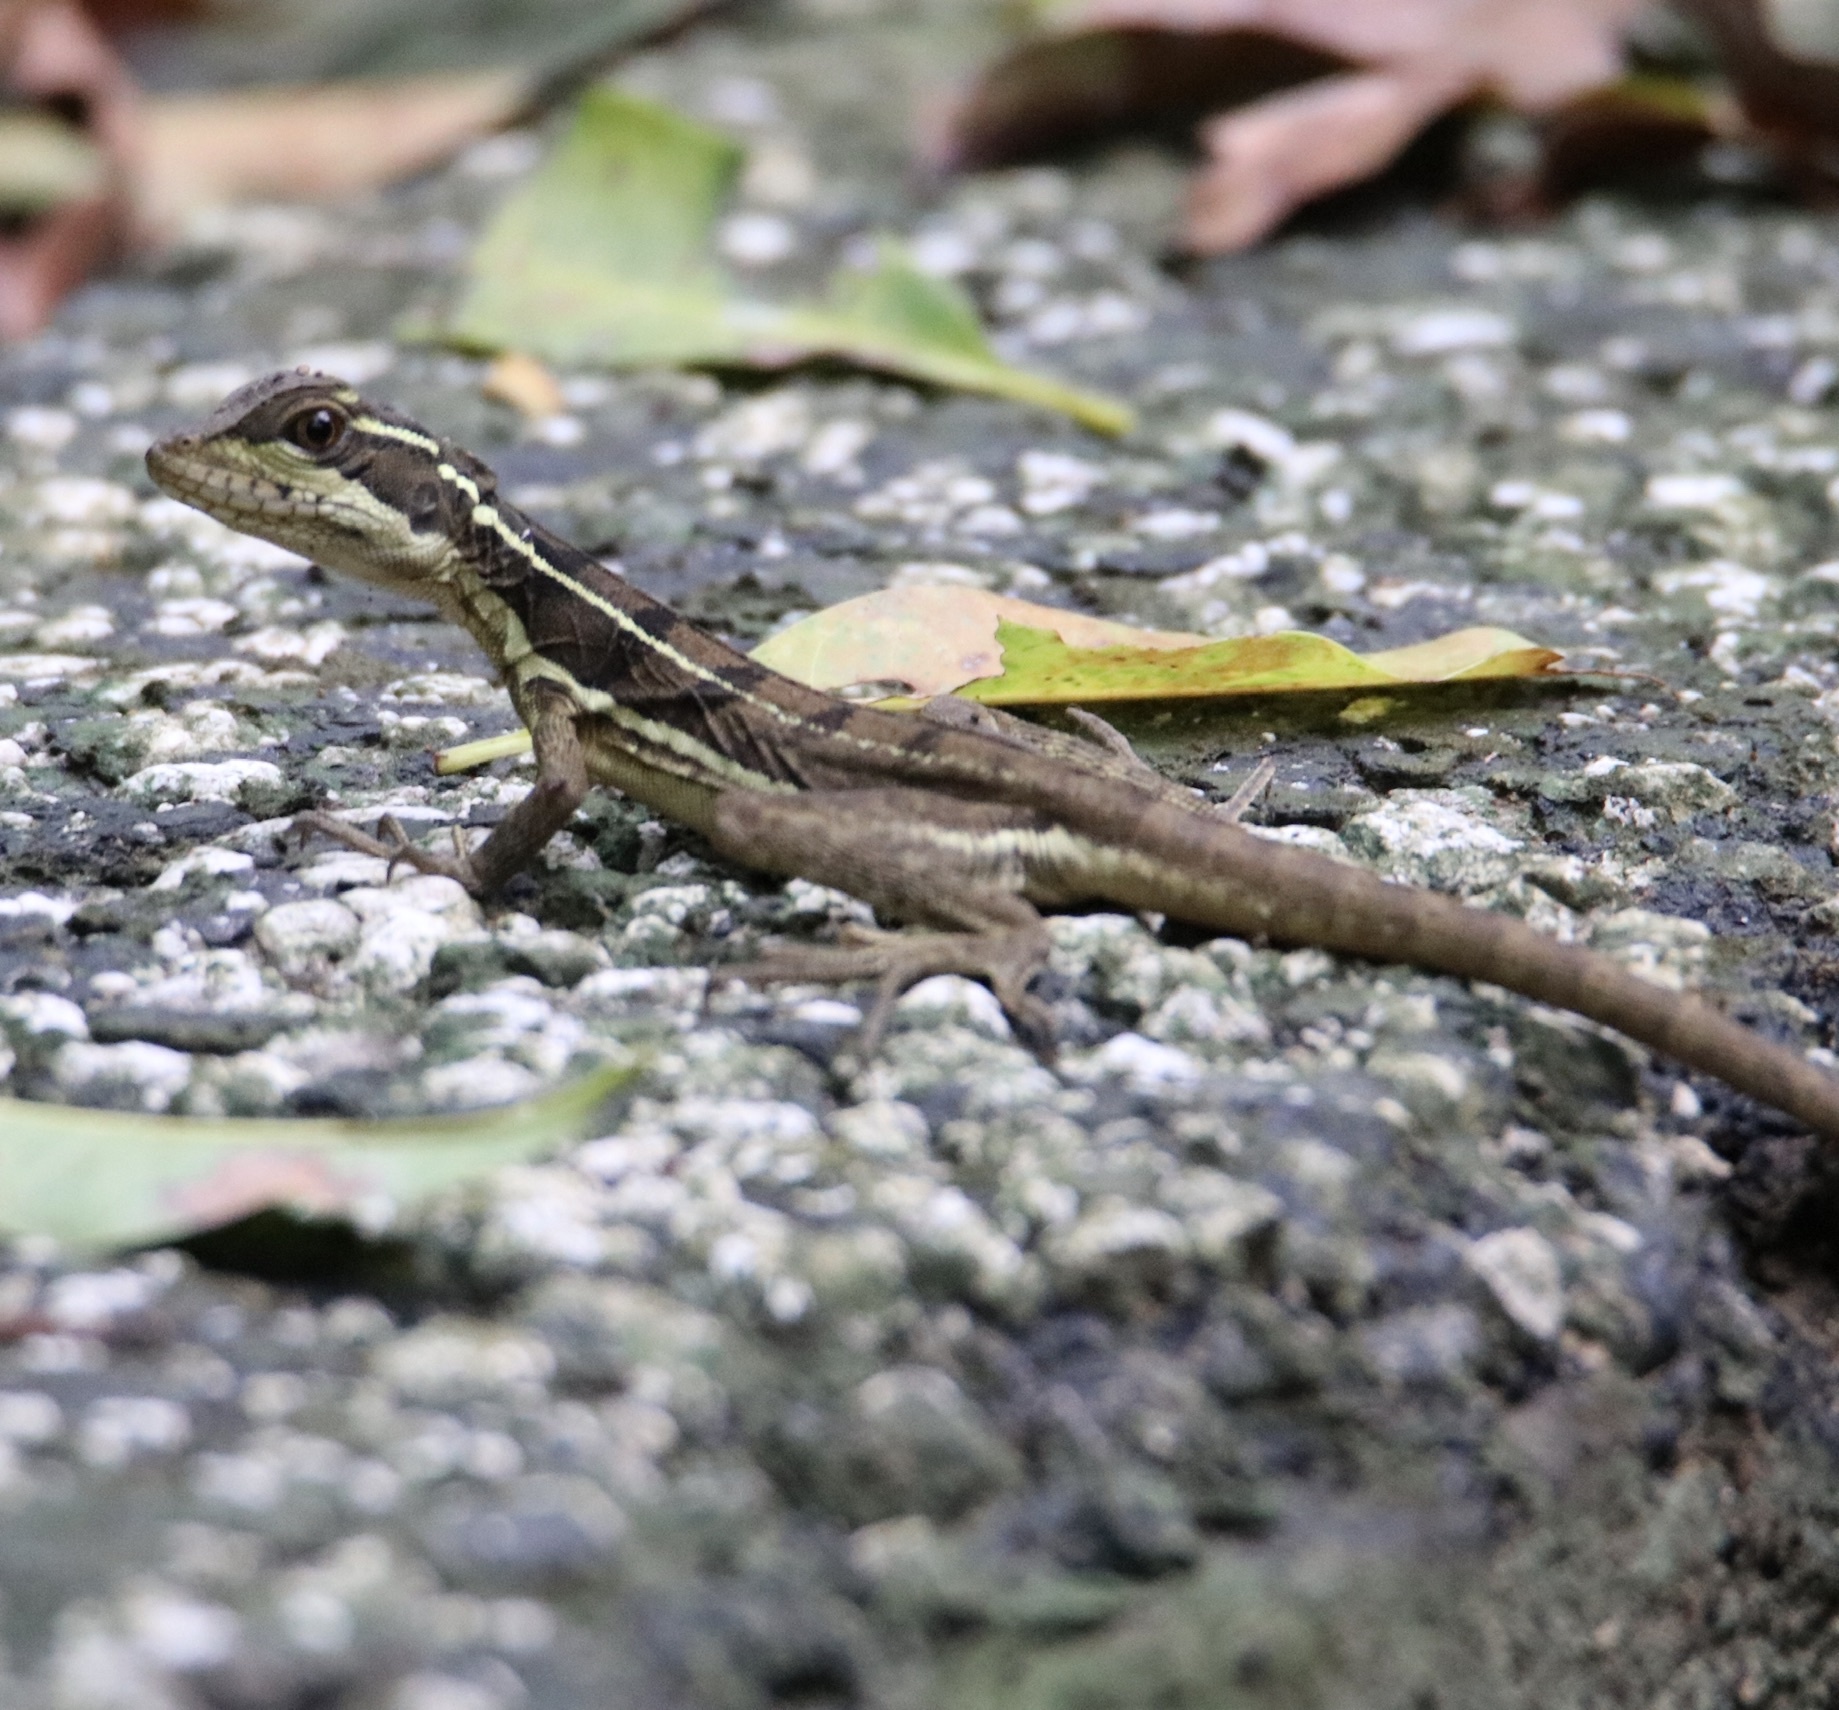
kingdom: Animalia
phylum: Chordata
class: Squamata
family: Corytophanidae
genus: Basiliscus
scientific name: Basiliscus basiliscus
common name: Common basilisk
